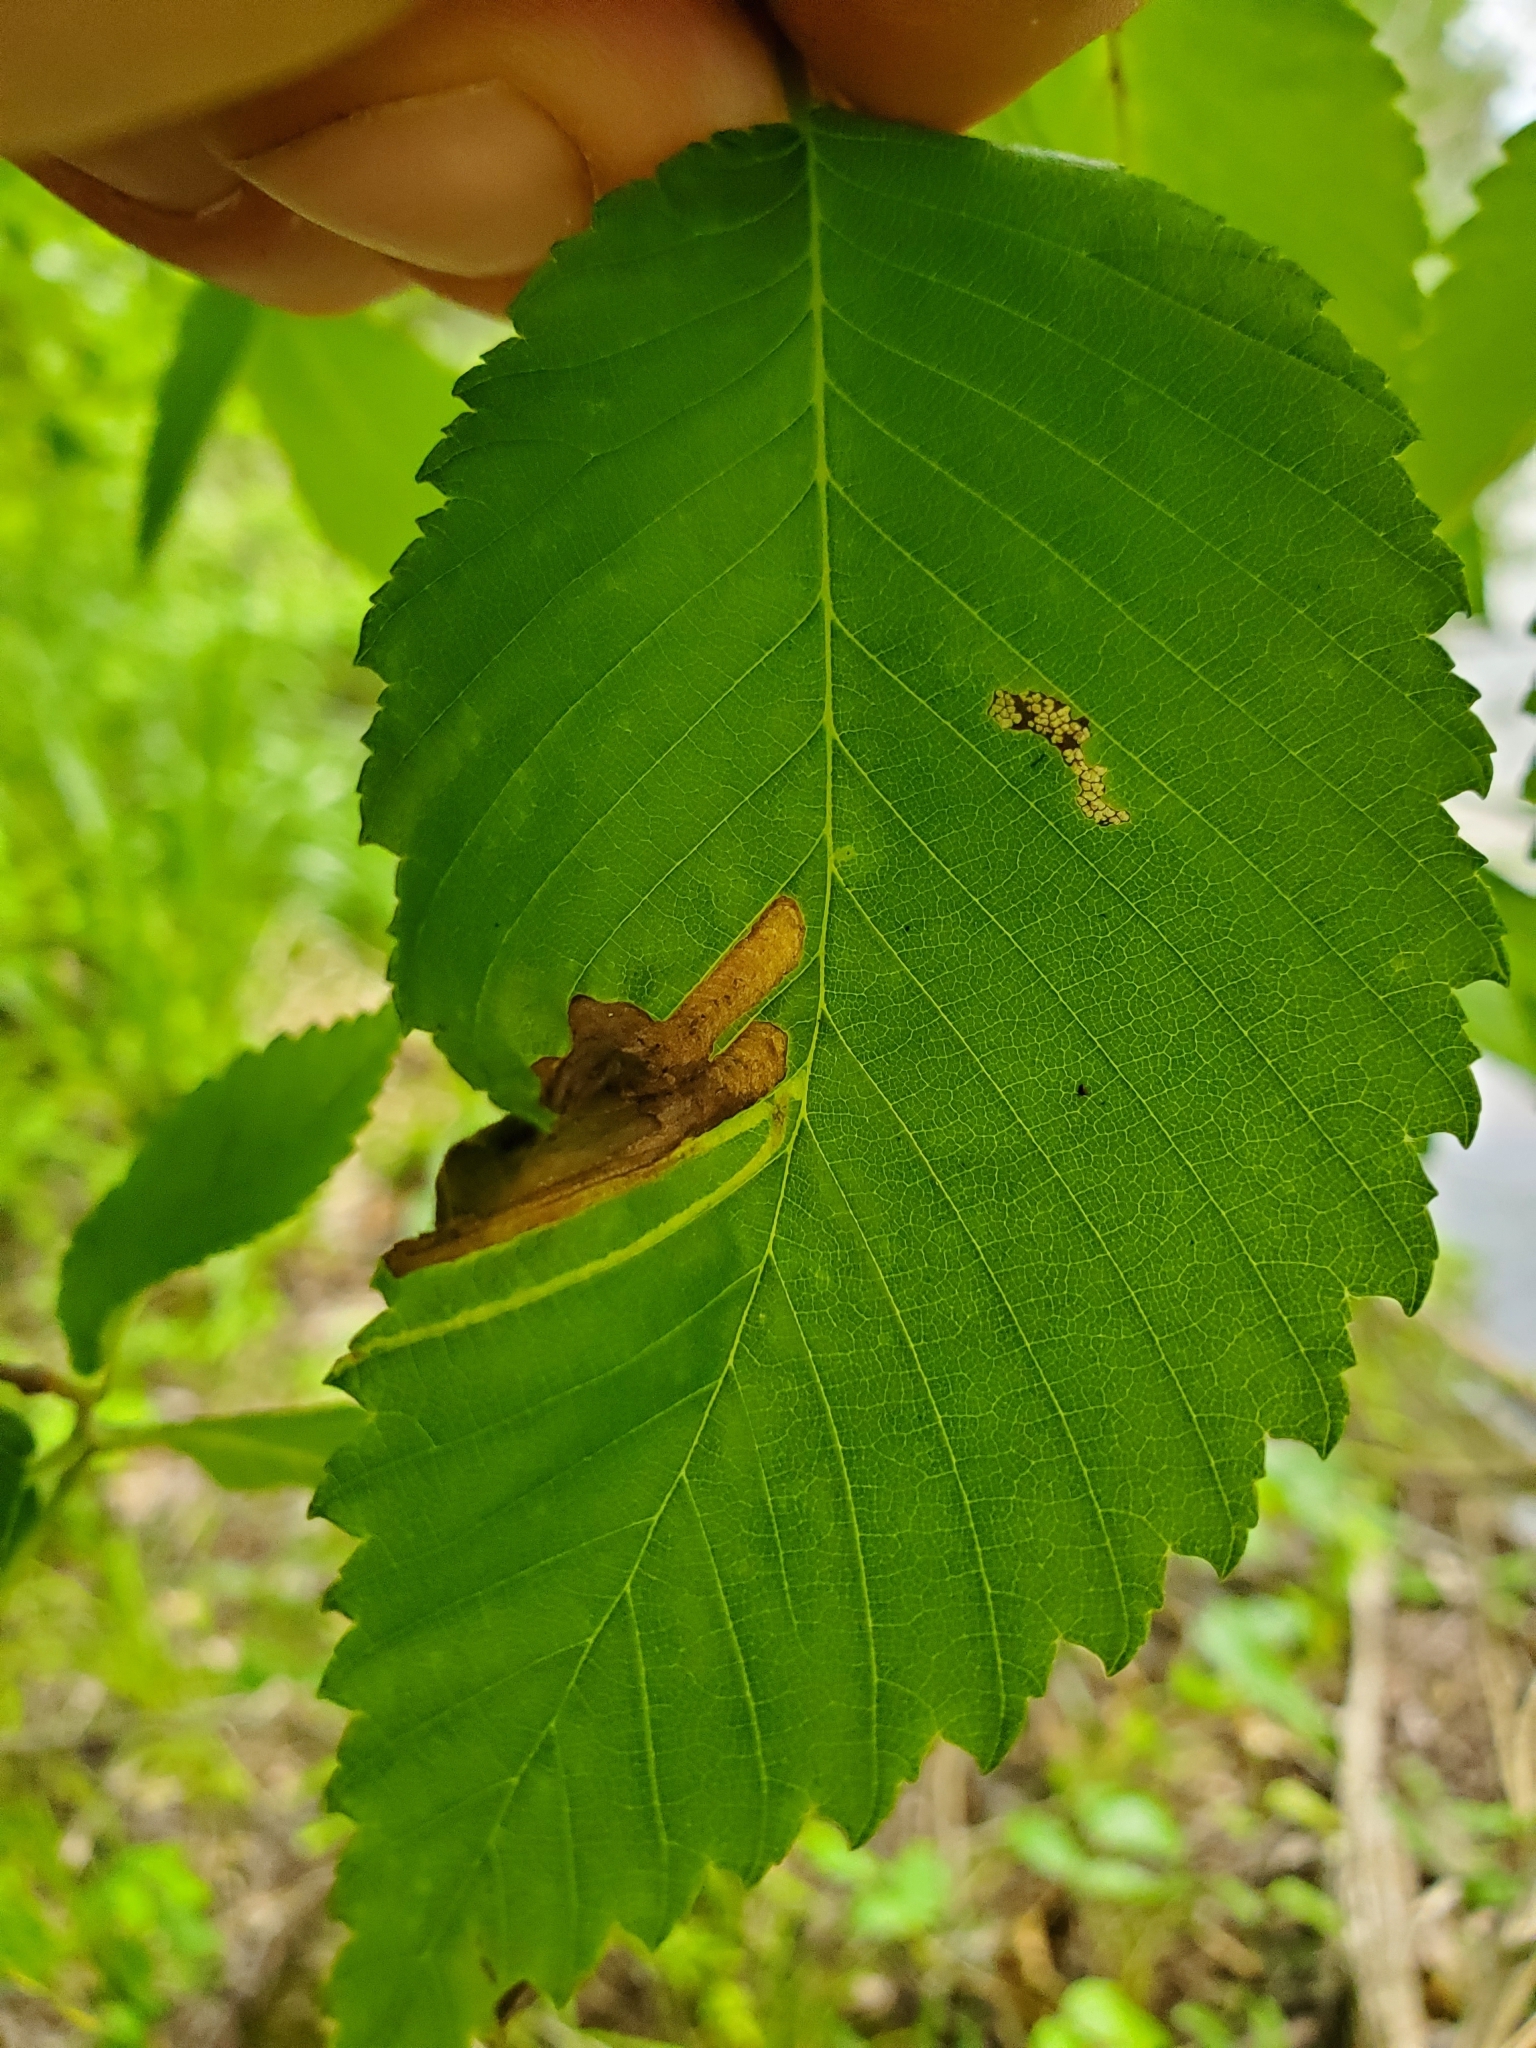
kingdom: Animalia
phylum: Arthropoda
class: Insecta
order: Diptera
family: Agromyzidae
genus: Agromyza
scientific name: Agromyza aristata
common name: Elm agromyzid leafminer
